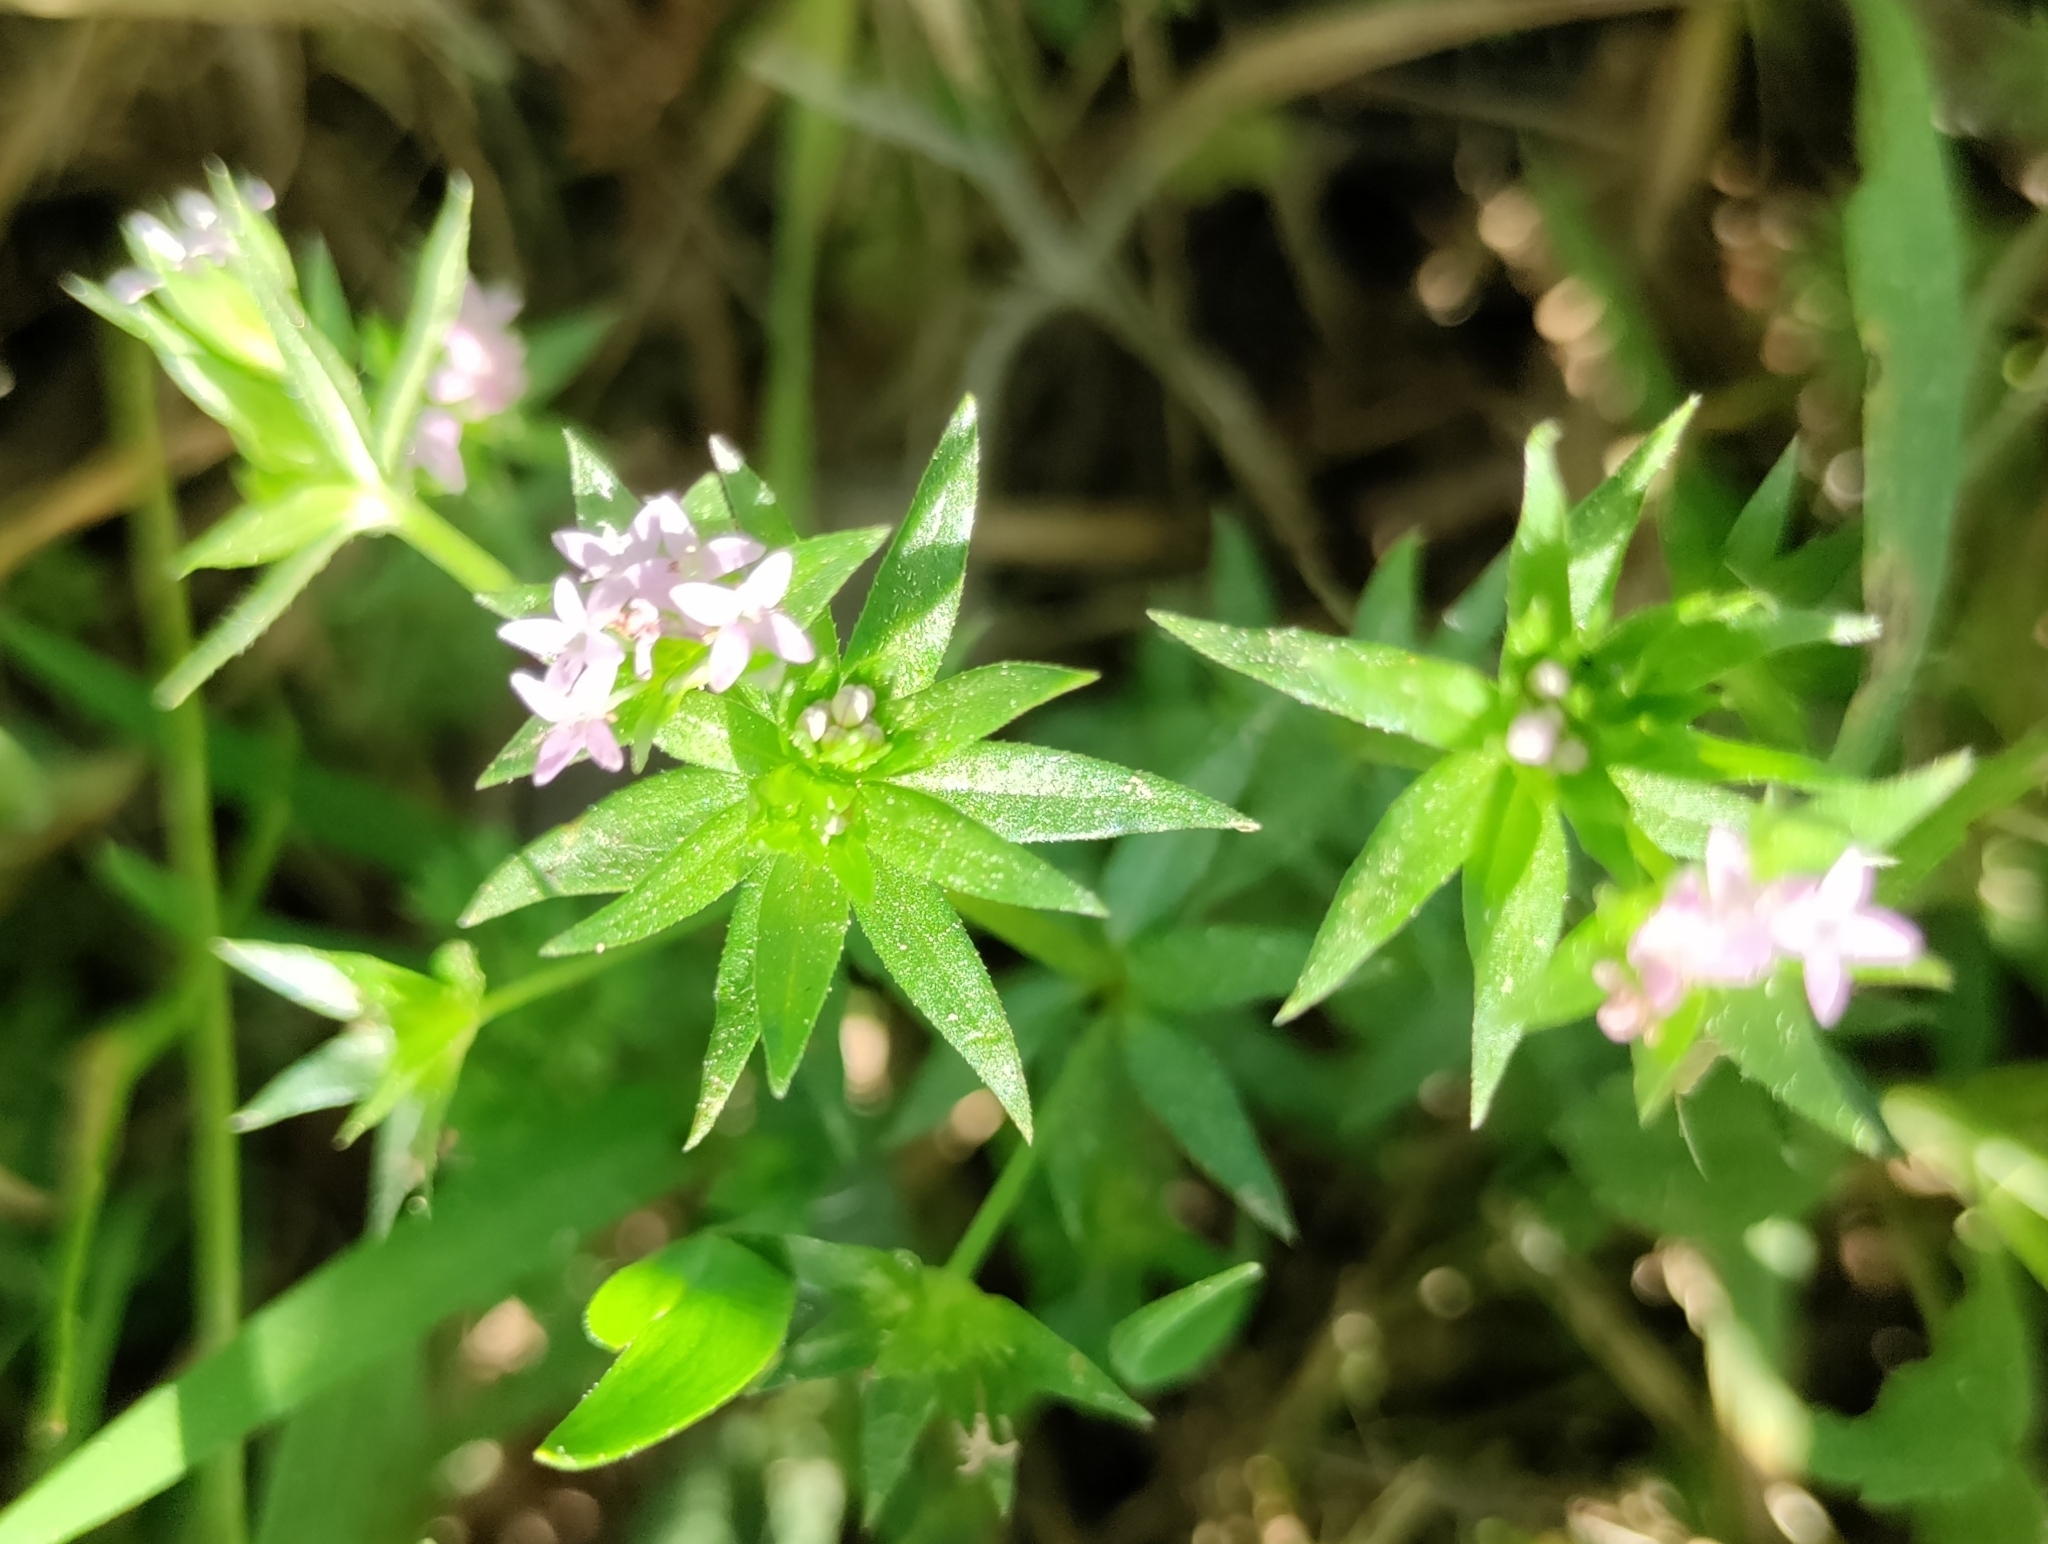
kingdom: Plantae
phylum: Tracheophyta
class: Magnoliopsida
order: Gentianales
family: Rubiaceae
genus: Sherardia
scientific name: Sherardia arvensis
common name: Field madder
